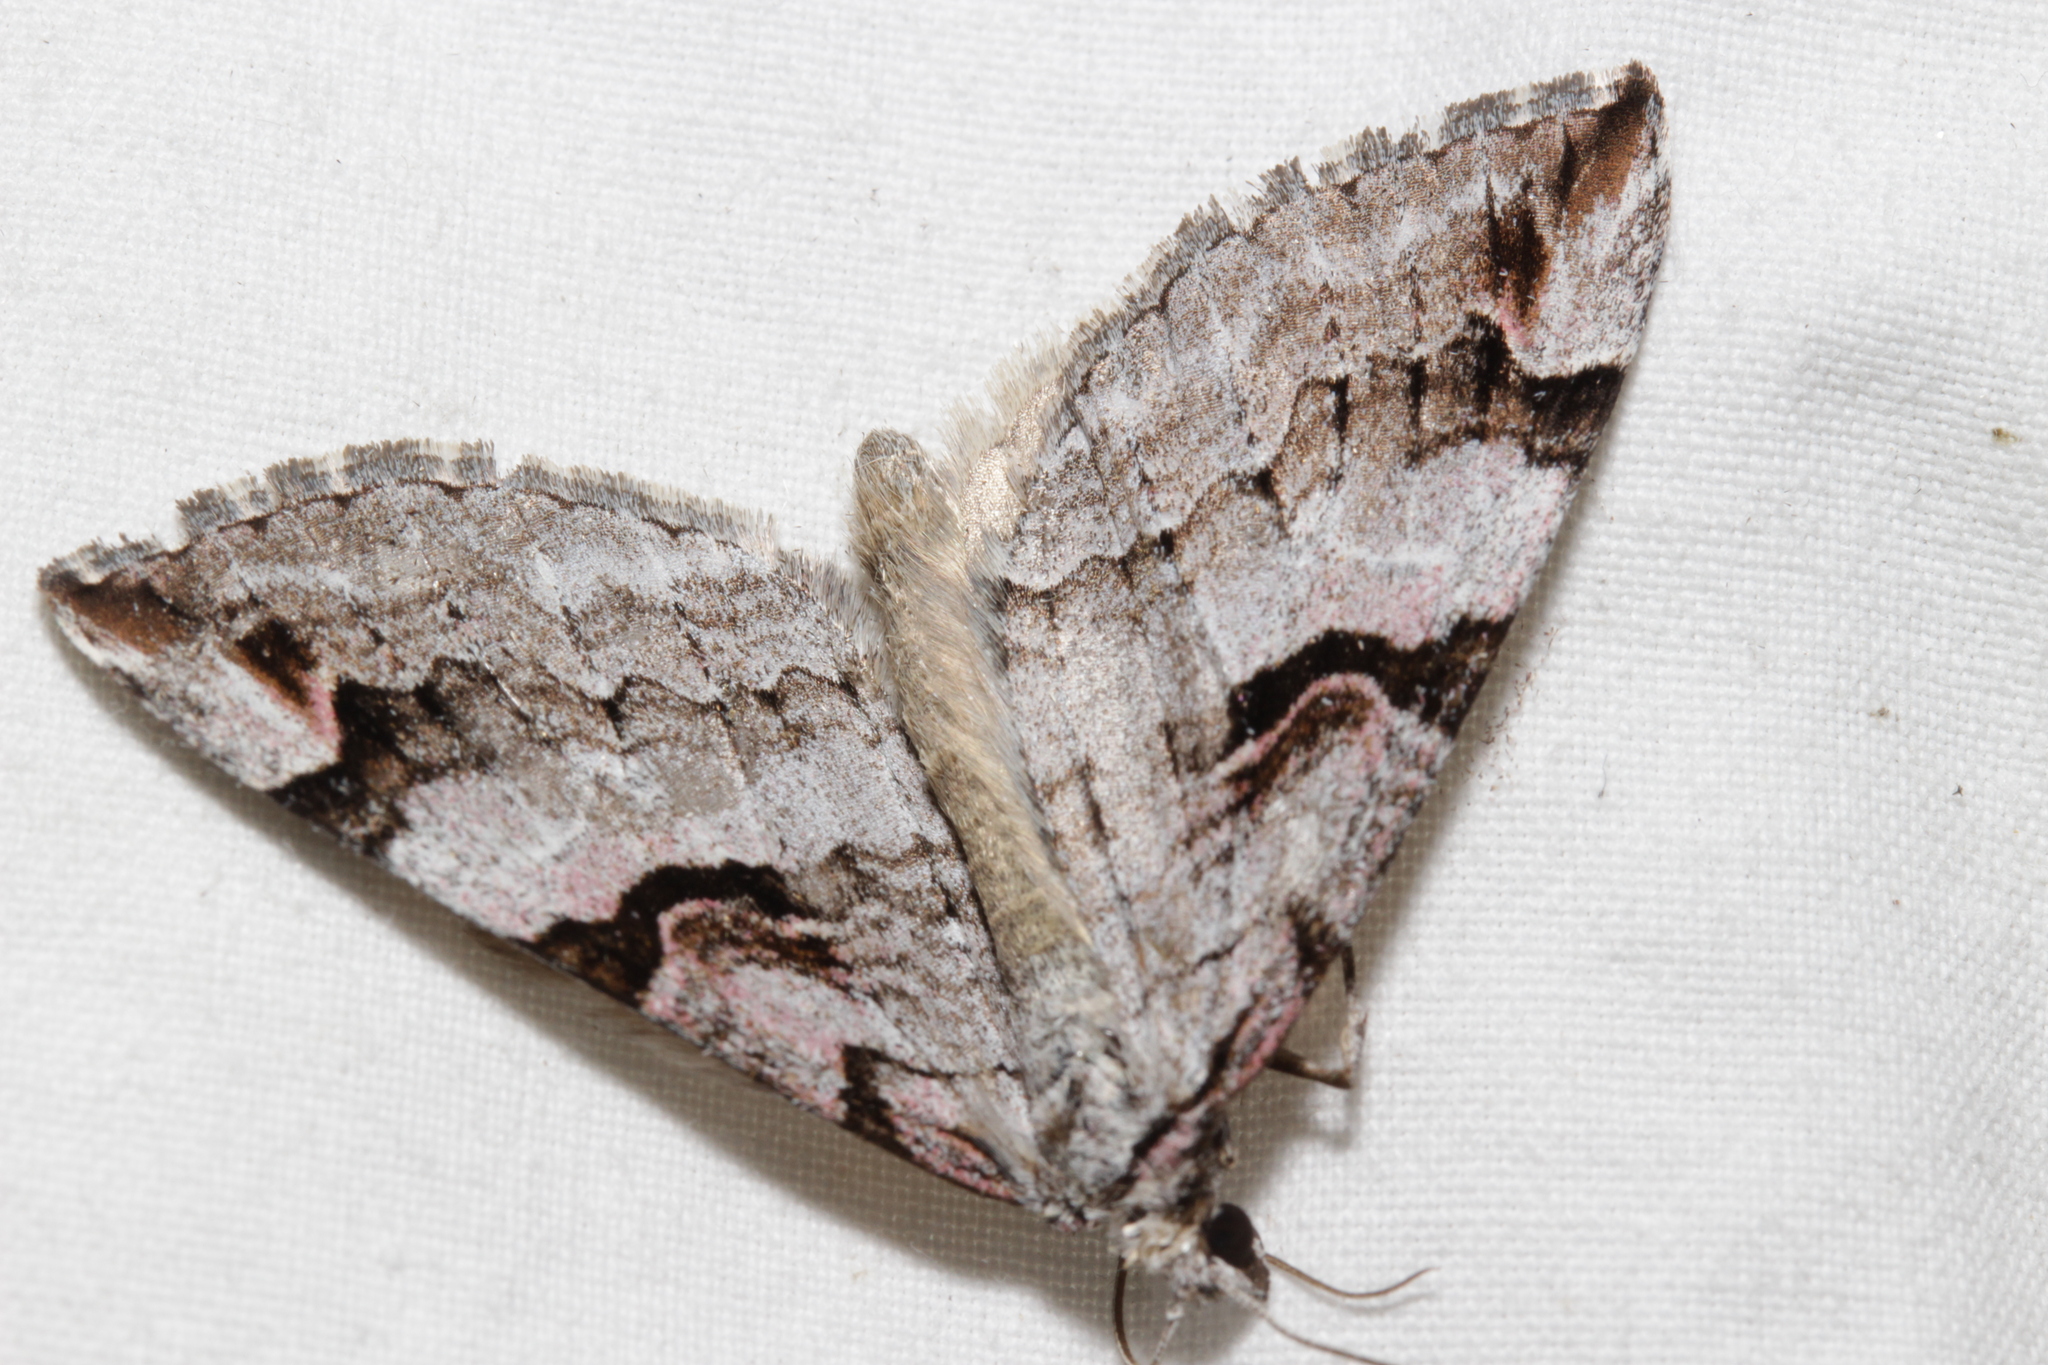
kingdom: Animalia
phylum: Arthropoda
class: Insecta
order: Lepidoptera
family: Geometridae
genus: Aplocera
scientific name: Aplocera praeformata
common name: Purple treble-bar
